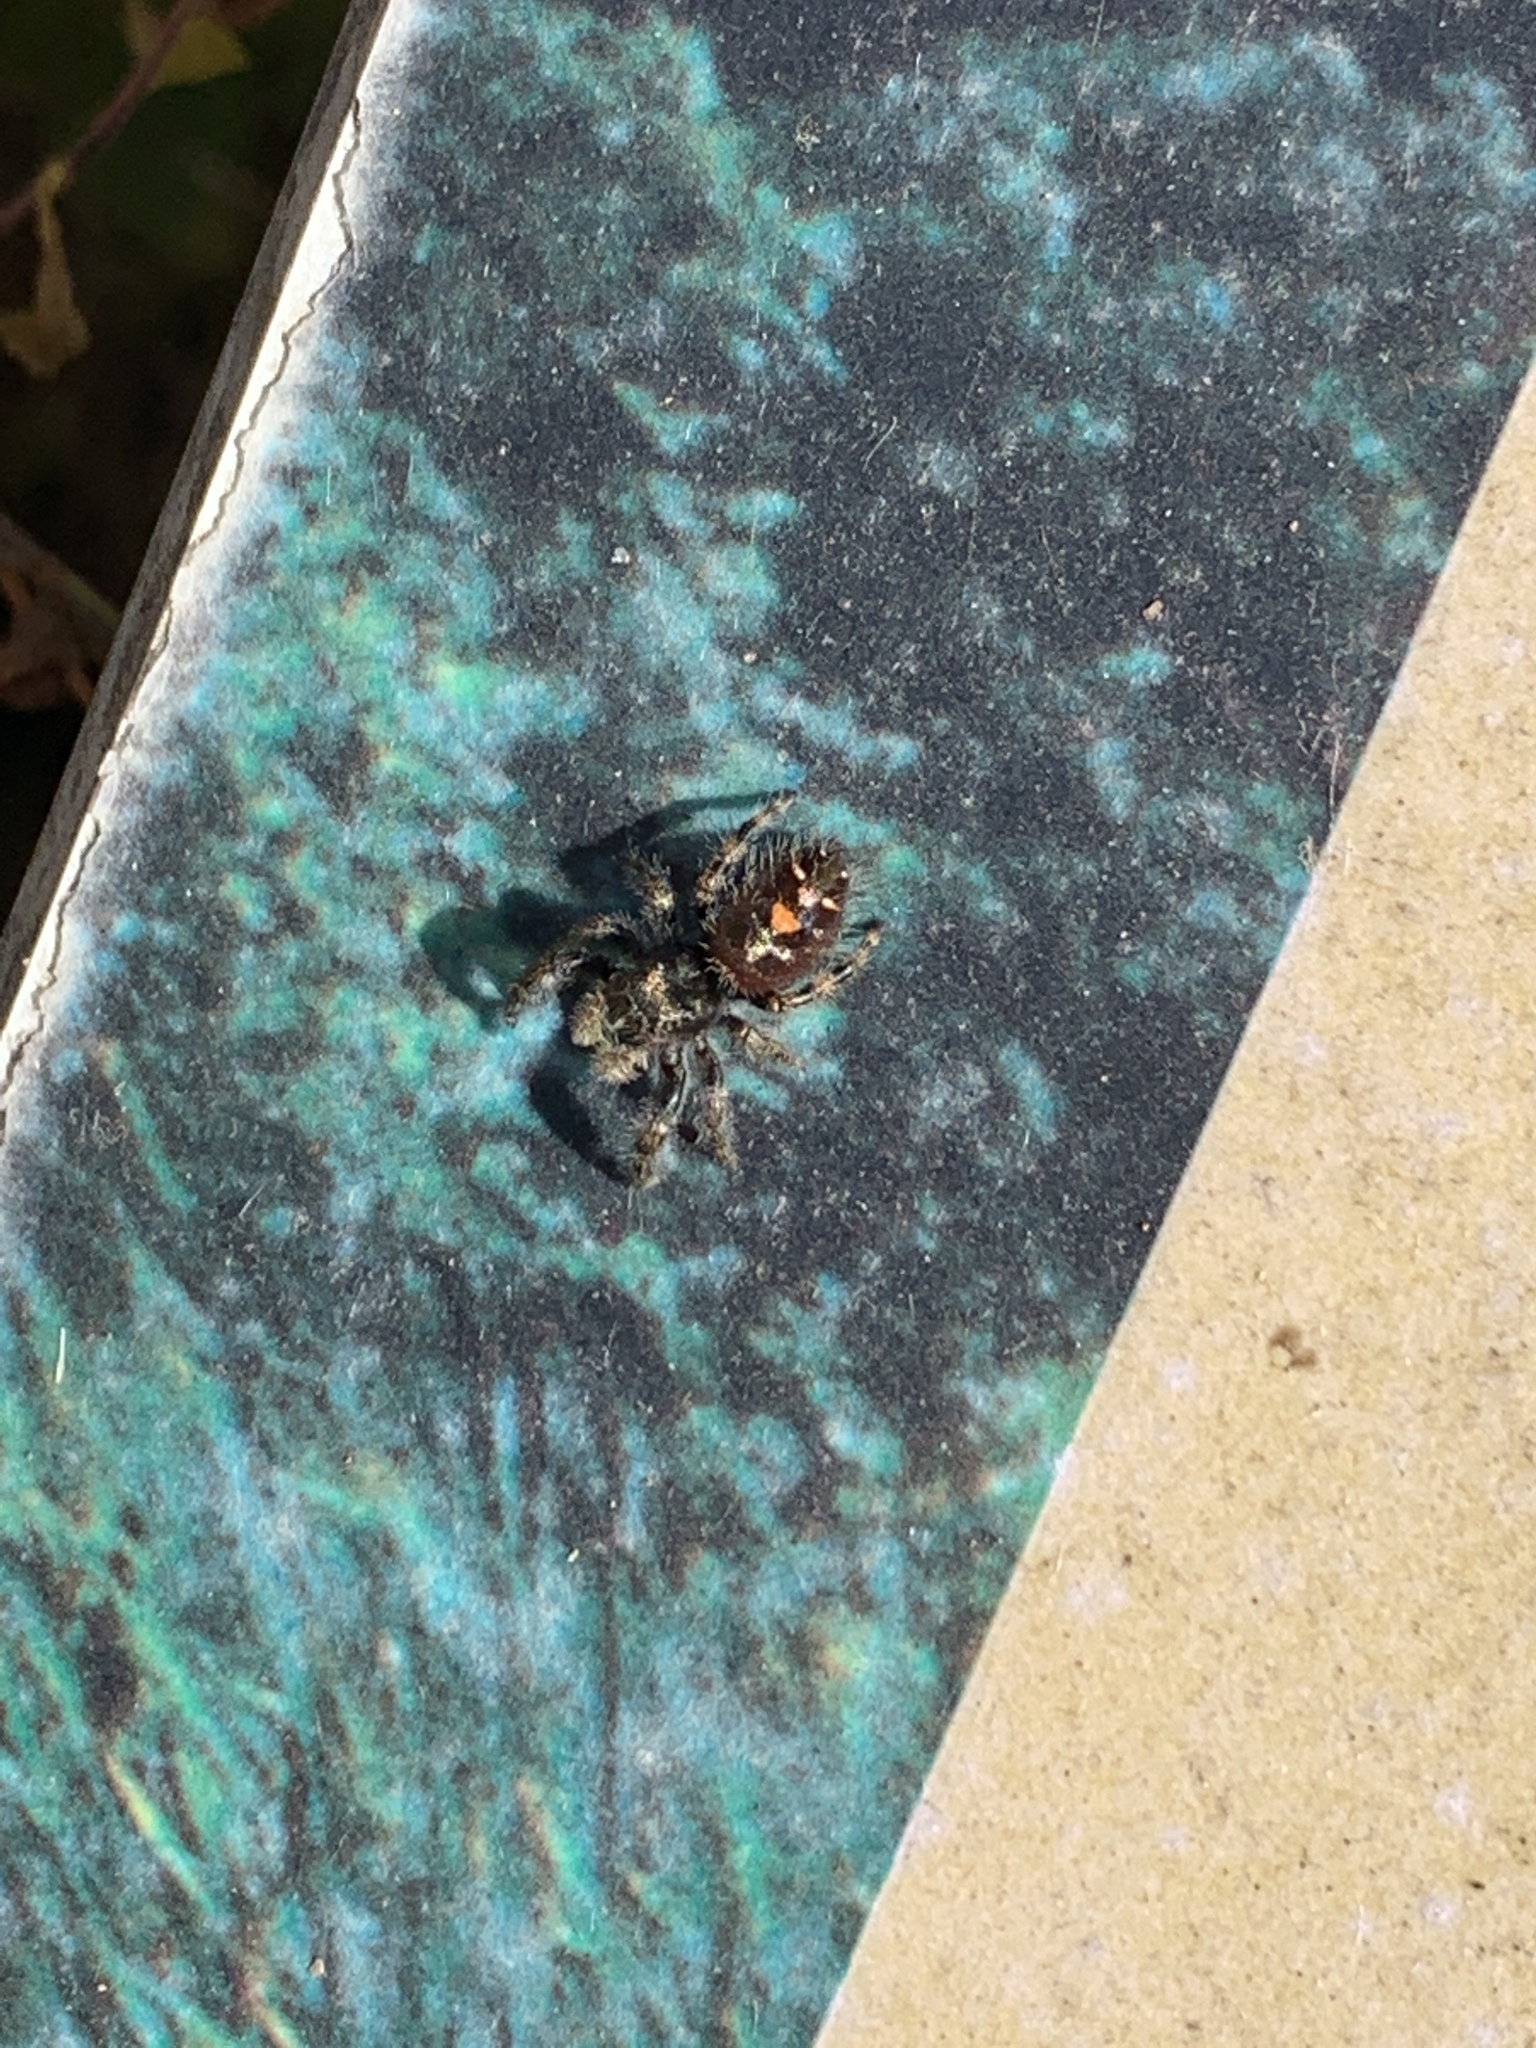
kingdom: Animalia
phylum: Arthropoda
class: Arachnida
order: Araneae
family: Salticidae
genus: Phidippus
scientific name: Phidippus audax
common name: Bold jumper
